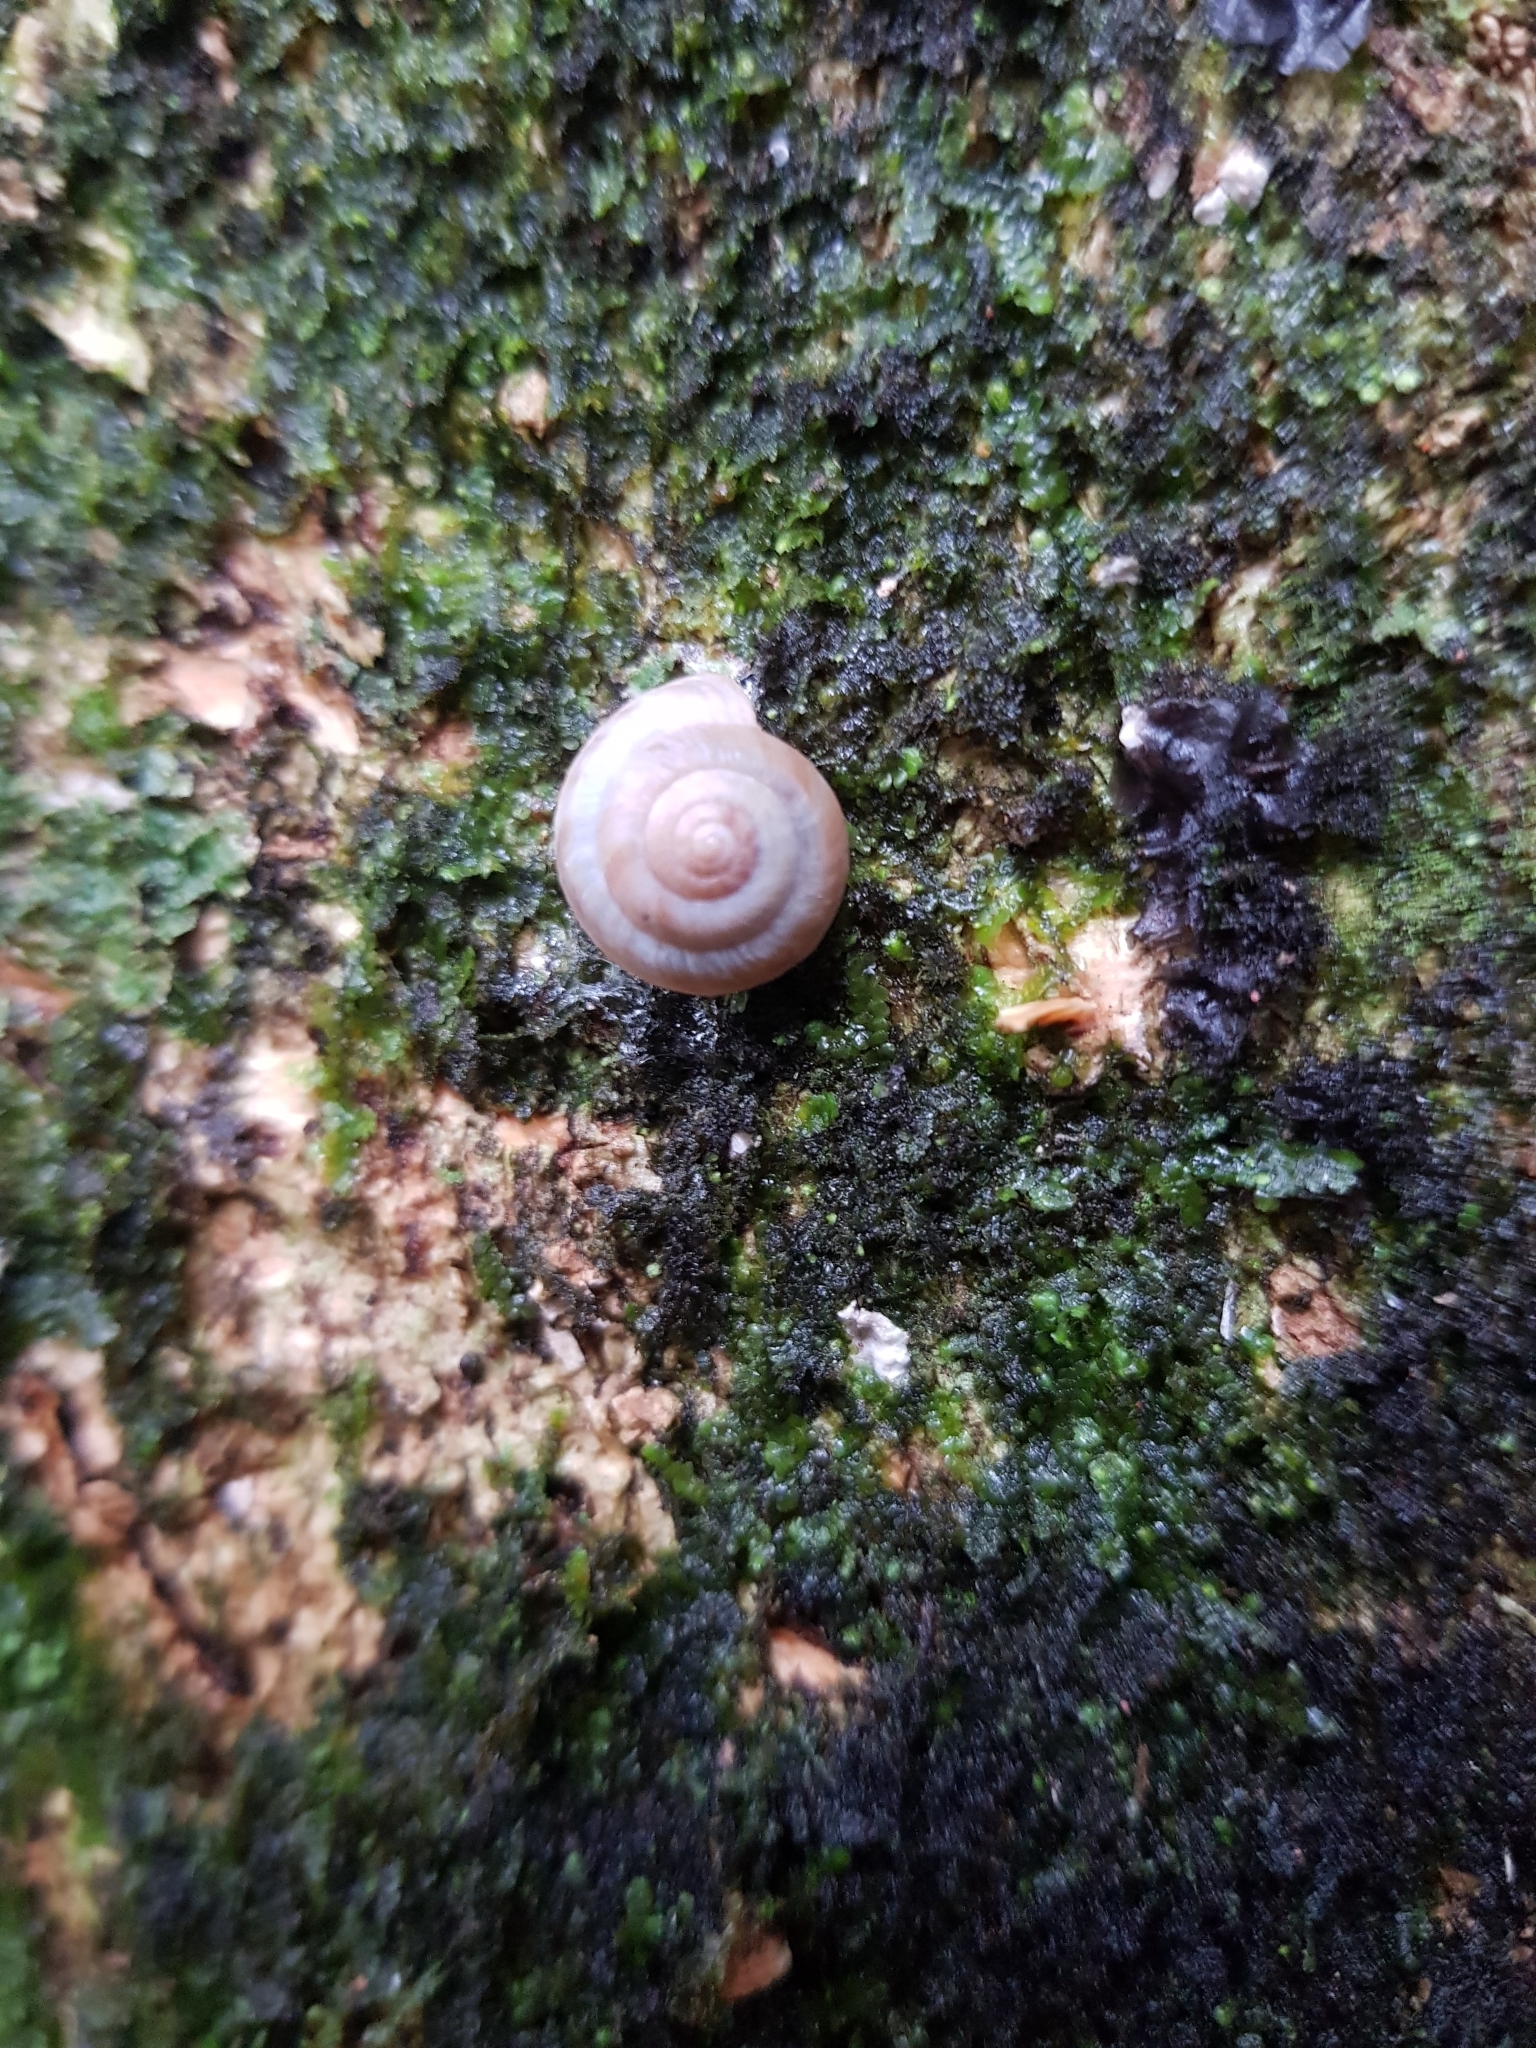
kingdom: Animalia
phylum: Mollusca
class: Gastropoda
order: Stylommatophora
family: Charopidae
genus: Serpho
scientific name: Serpho
